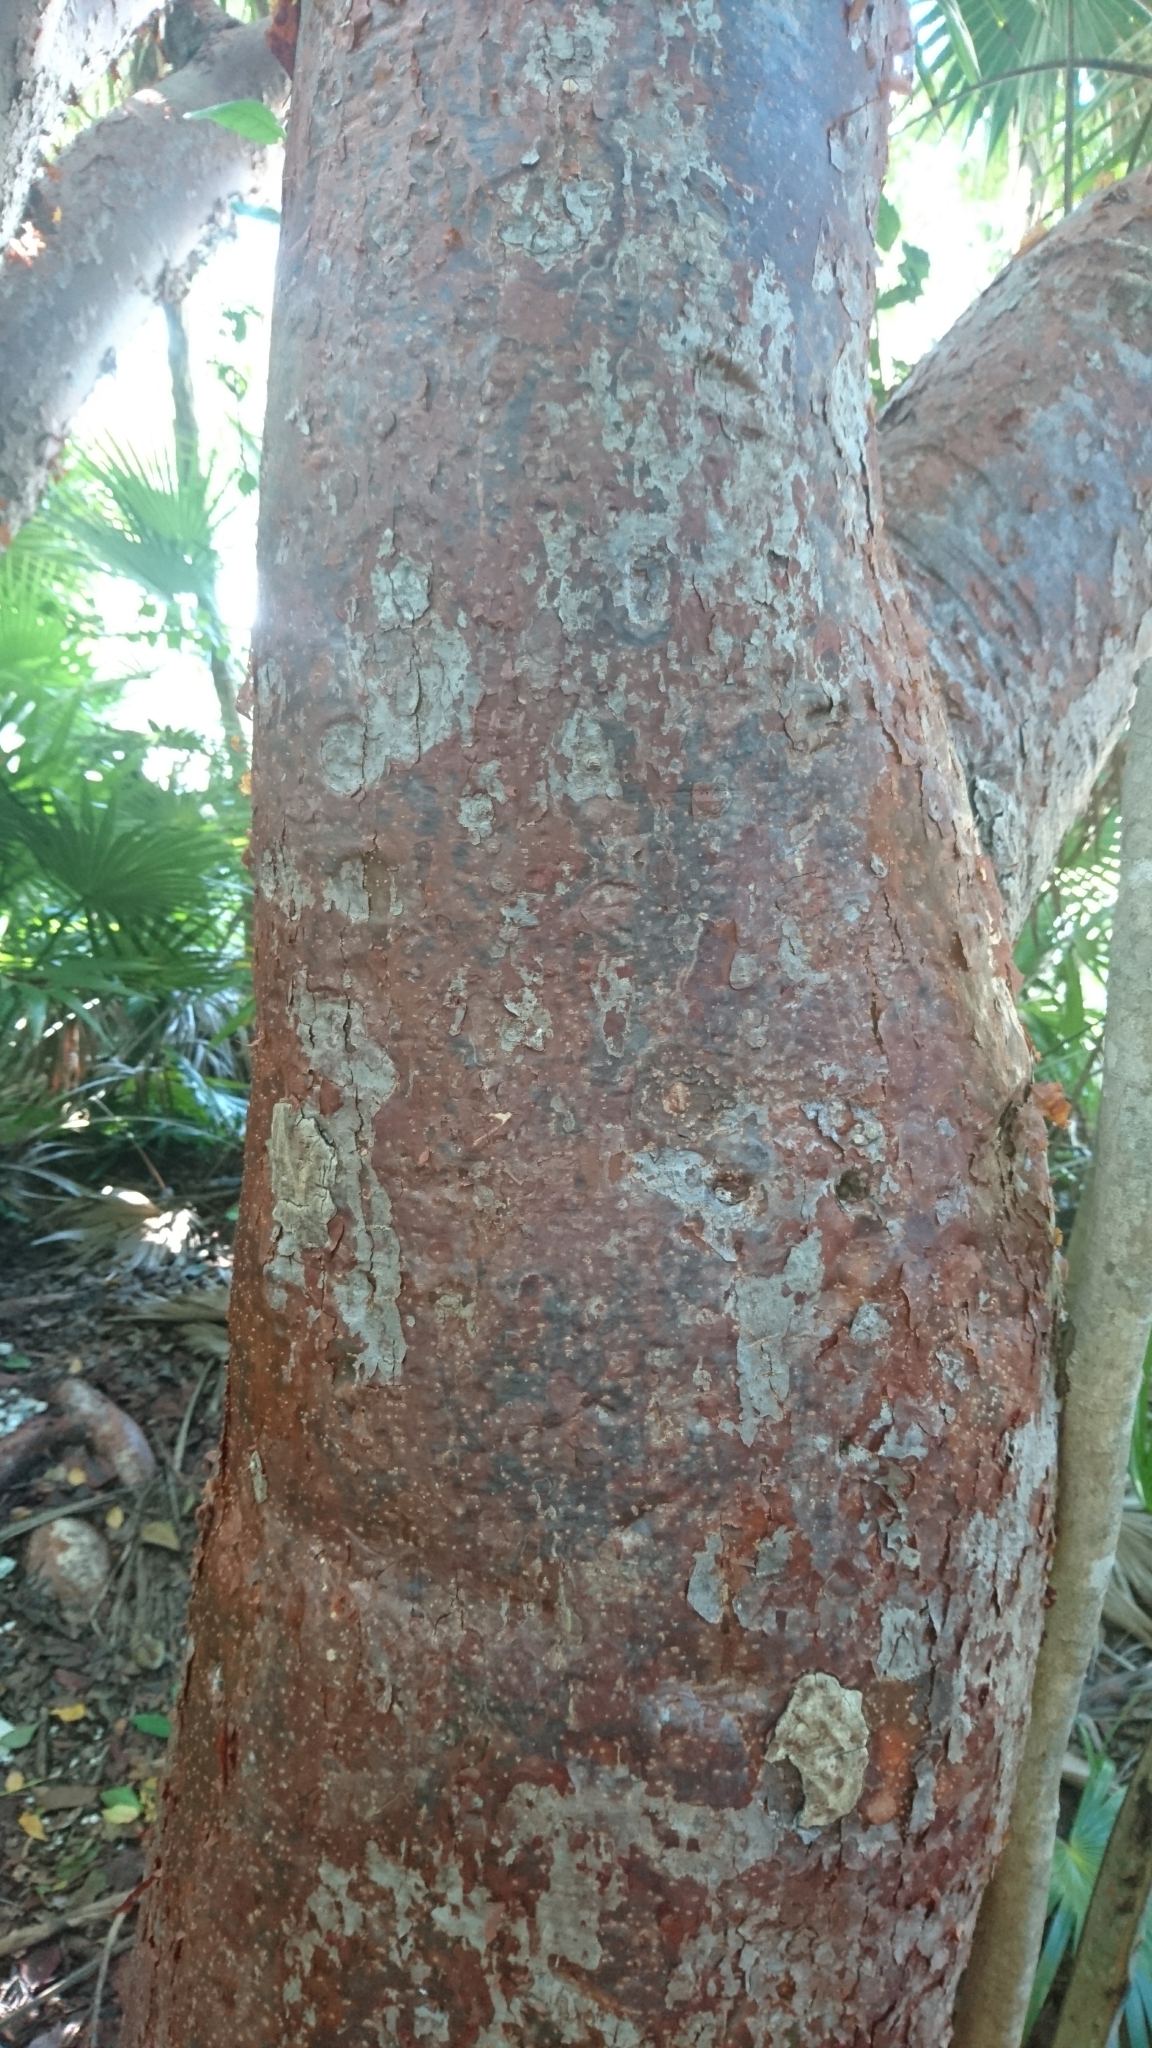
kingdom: Plantae
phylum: Tracheophyta
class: Magnoliopsida
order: Sapindales
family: Burseraceae
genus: Bursera
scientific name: Bursera simaruba
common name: Turpentine tree
